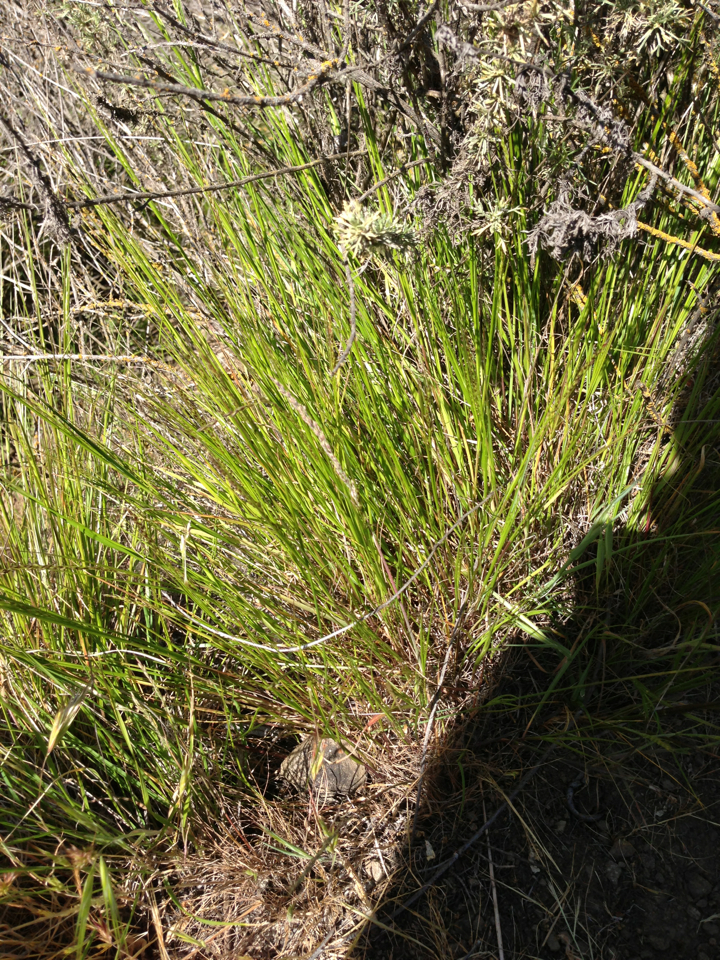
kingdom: Plantae
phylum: Tracheophyta
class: Liliopsida
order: Poales
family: Poaceae
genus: Melica
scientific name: Melica imperfecta
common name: California melic
